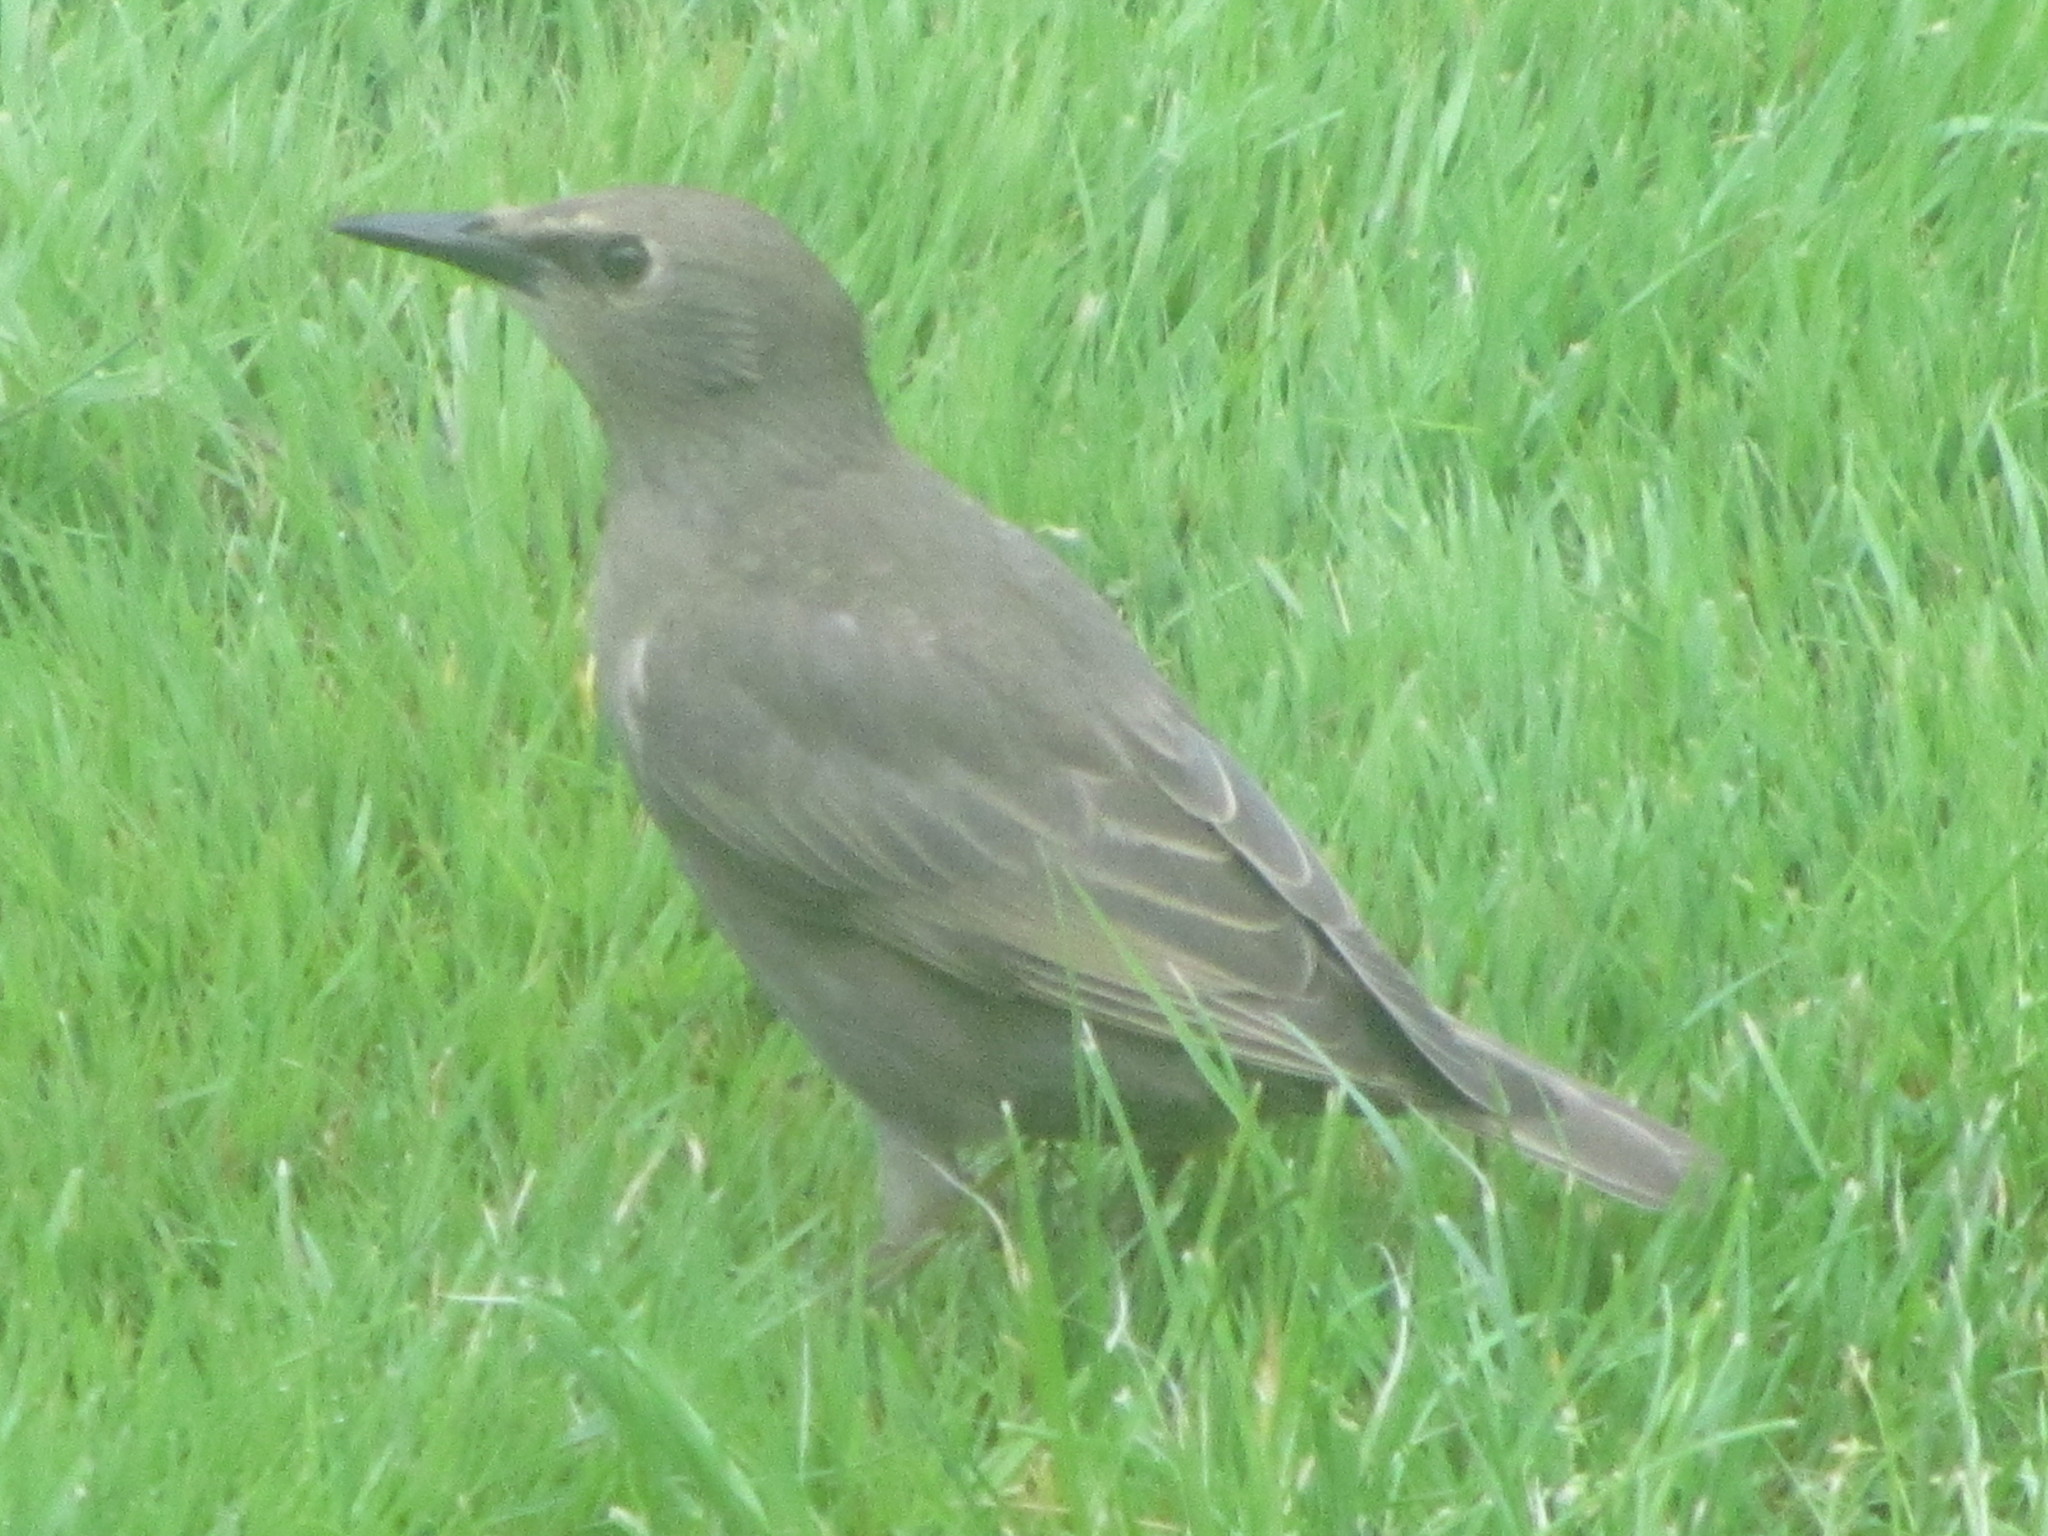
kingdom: Animalia
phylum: Chordata
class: Aves
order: Passeriformes
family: Sturnidae
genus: Sturnus
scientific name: Sturnus vulgaris
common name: Common starling
